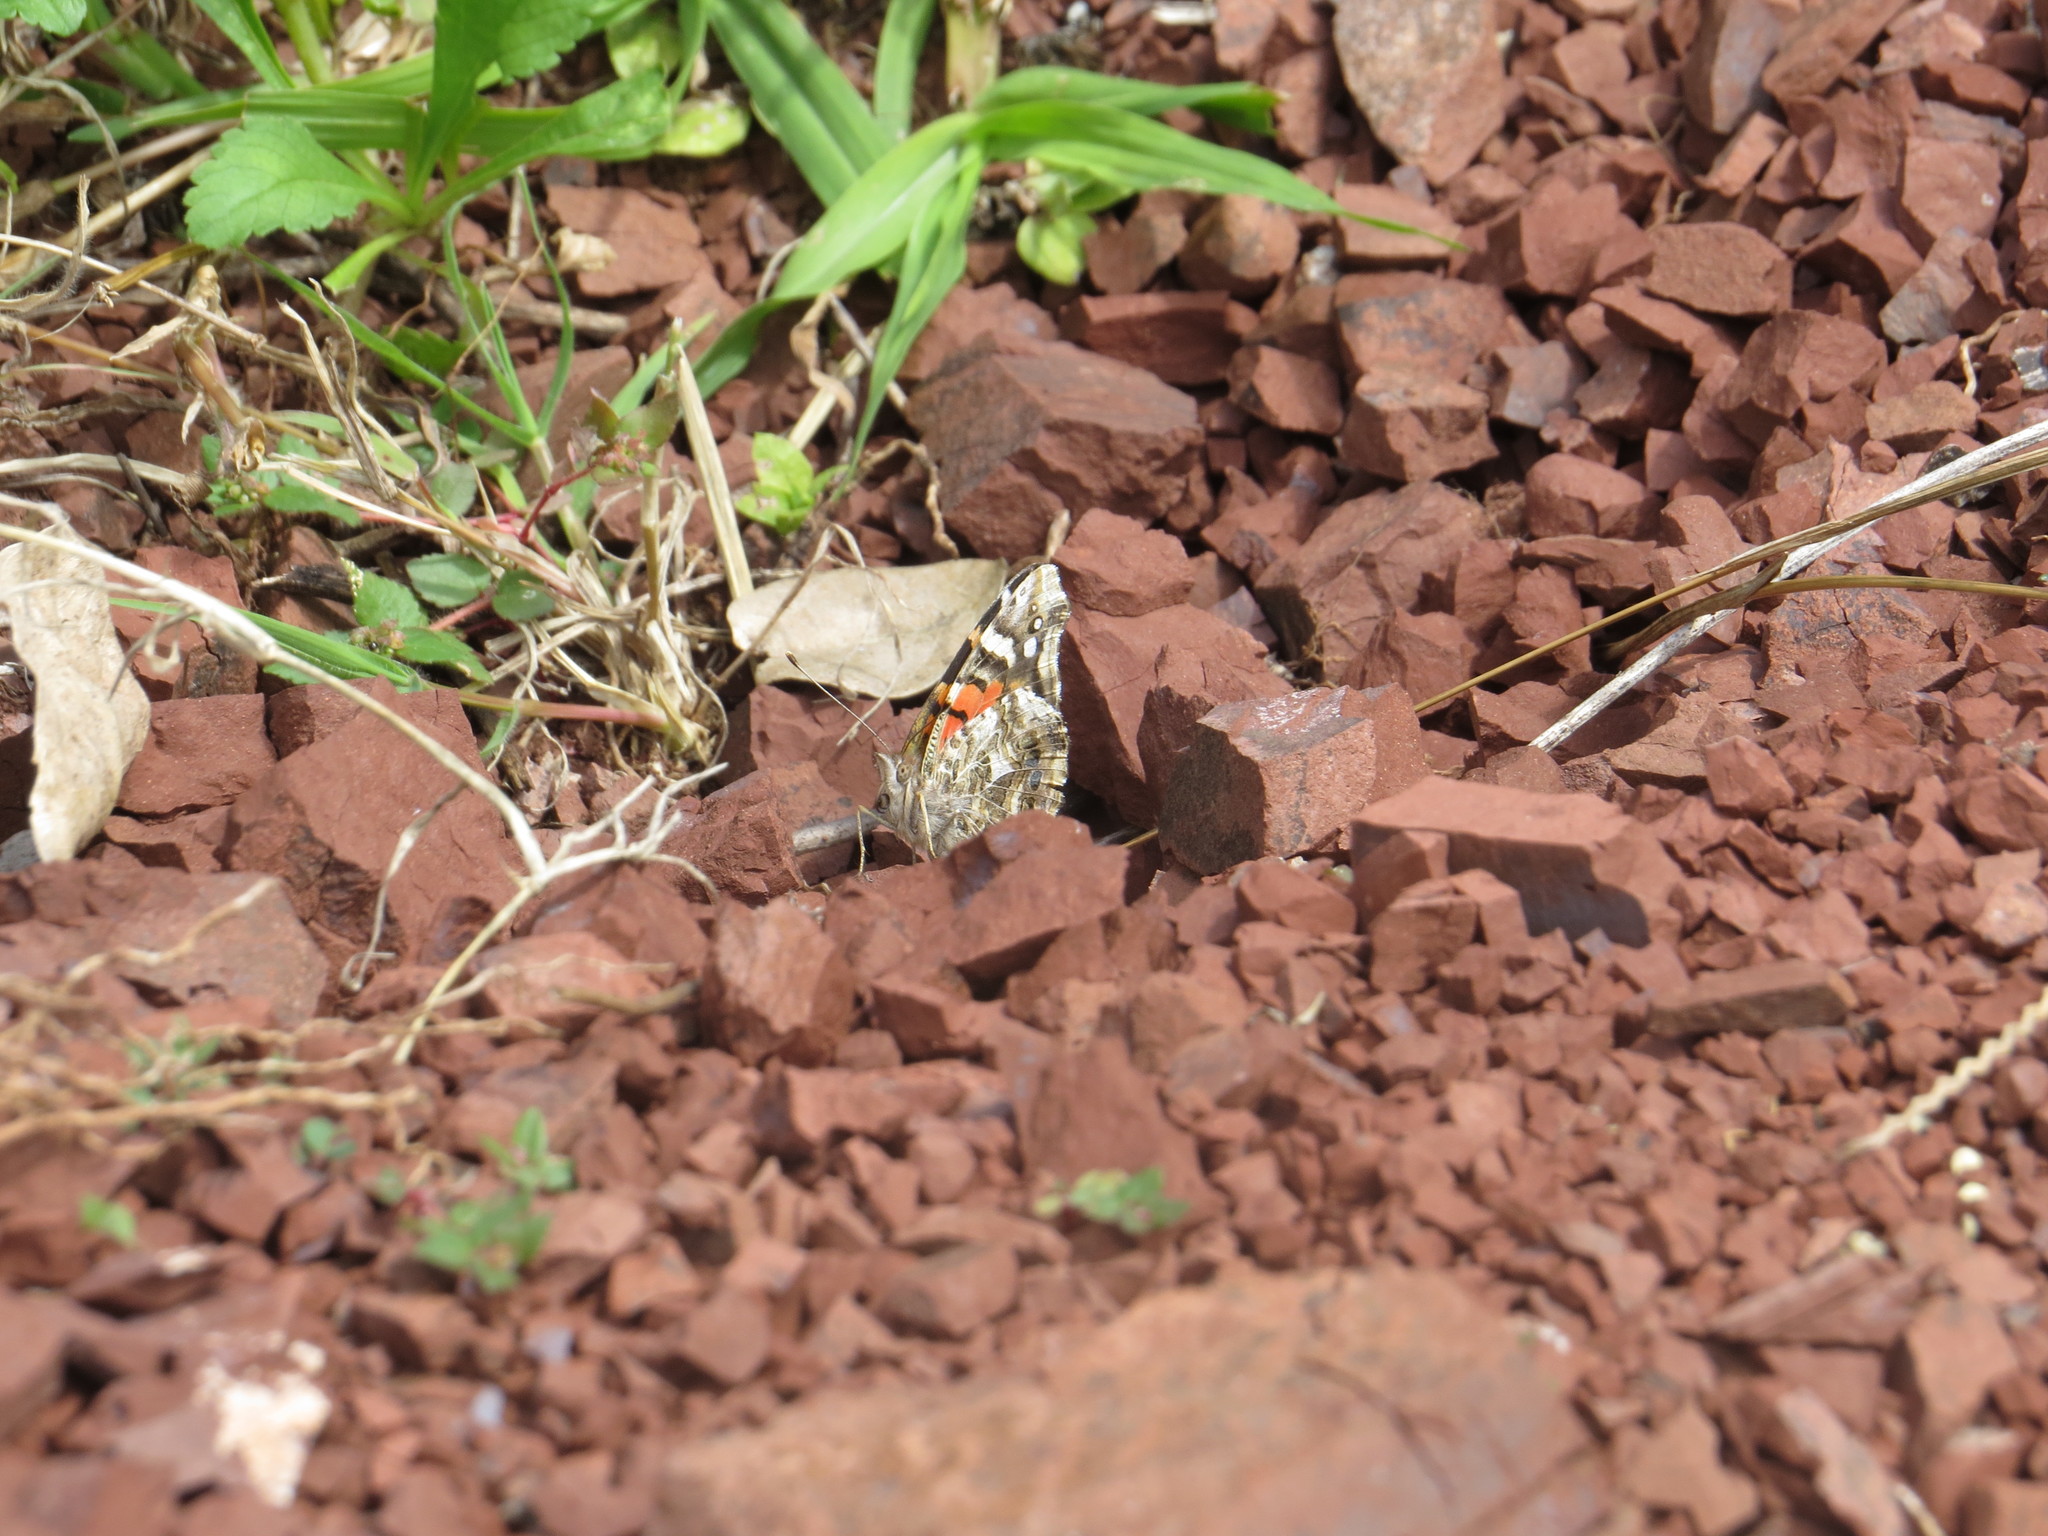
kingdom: Animalia
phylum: Arthropoda
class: Insecta
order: Lepidoptera
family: Nymphalidae
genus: Vanessa
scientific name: Vanessa carye
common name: Subtropical lady
